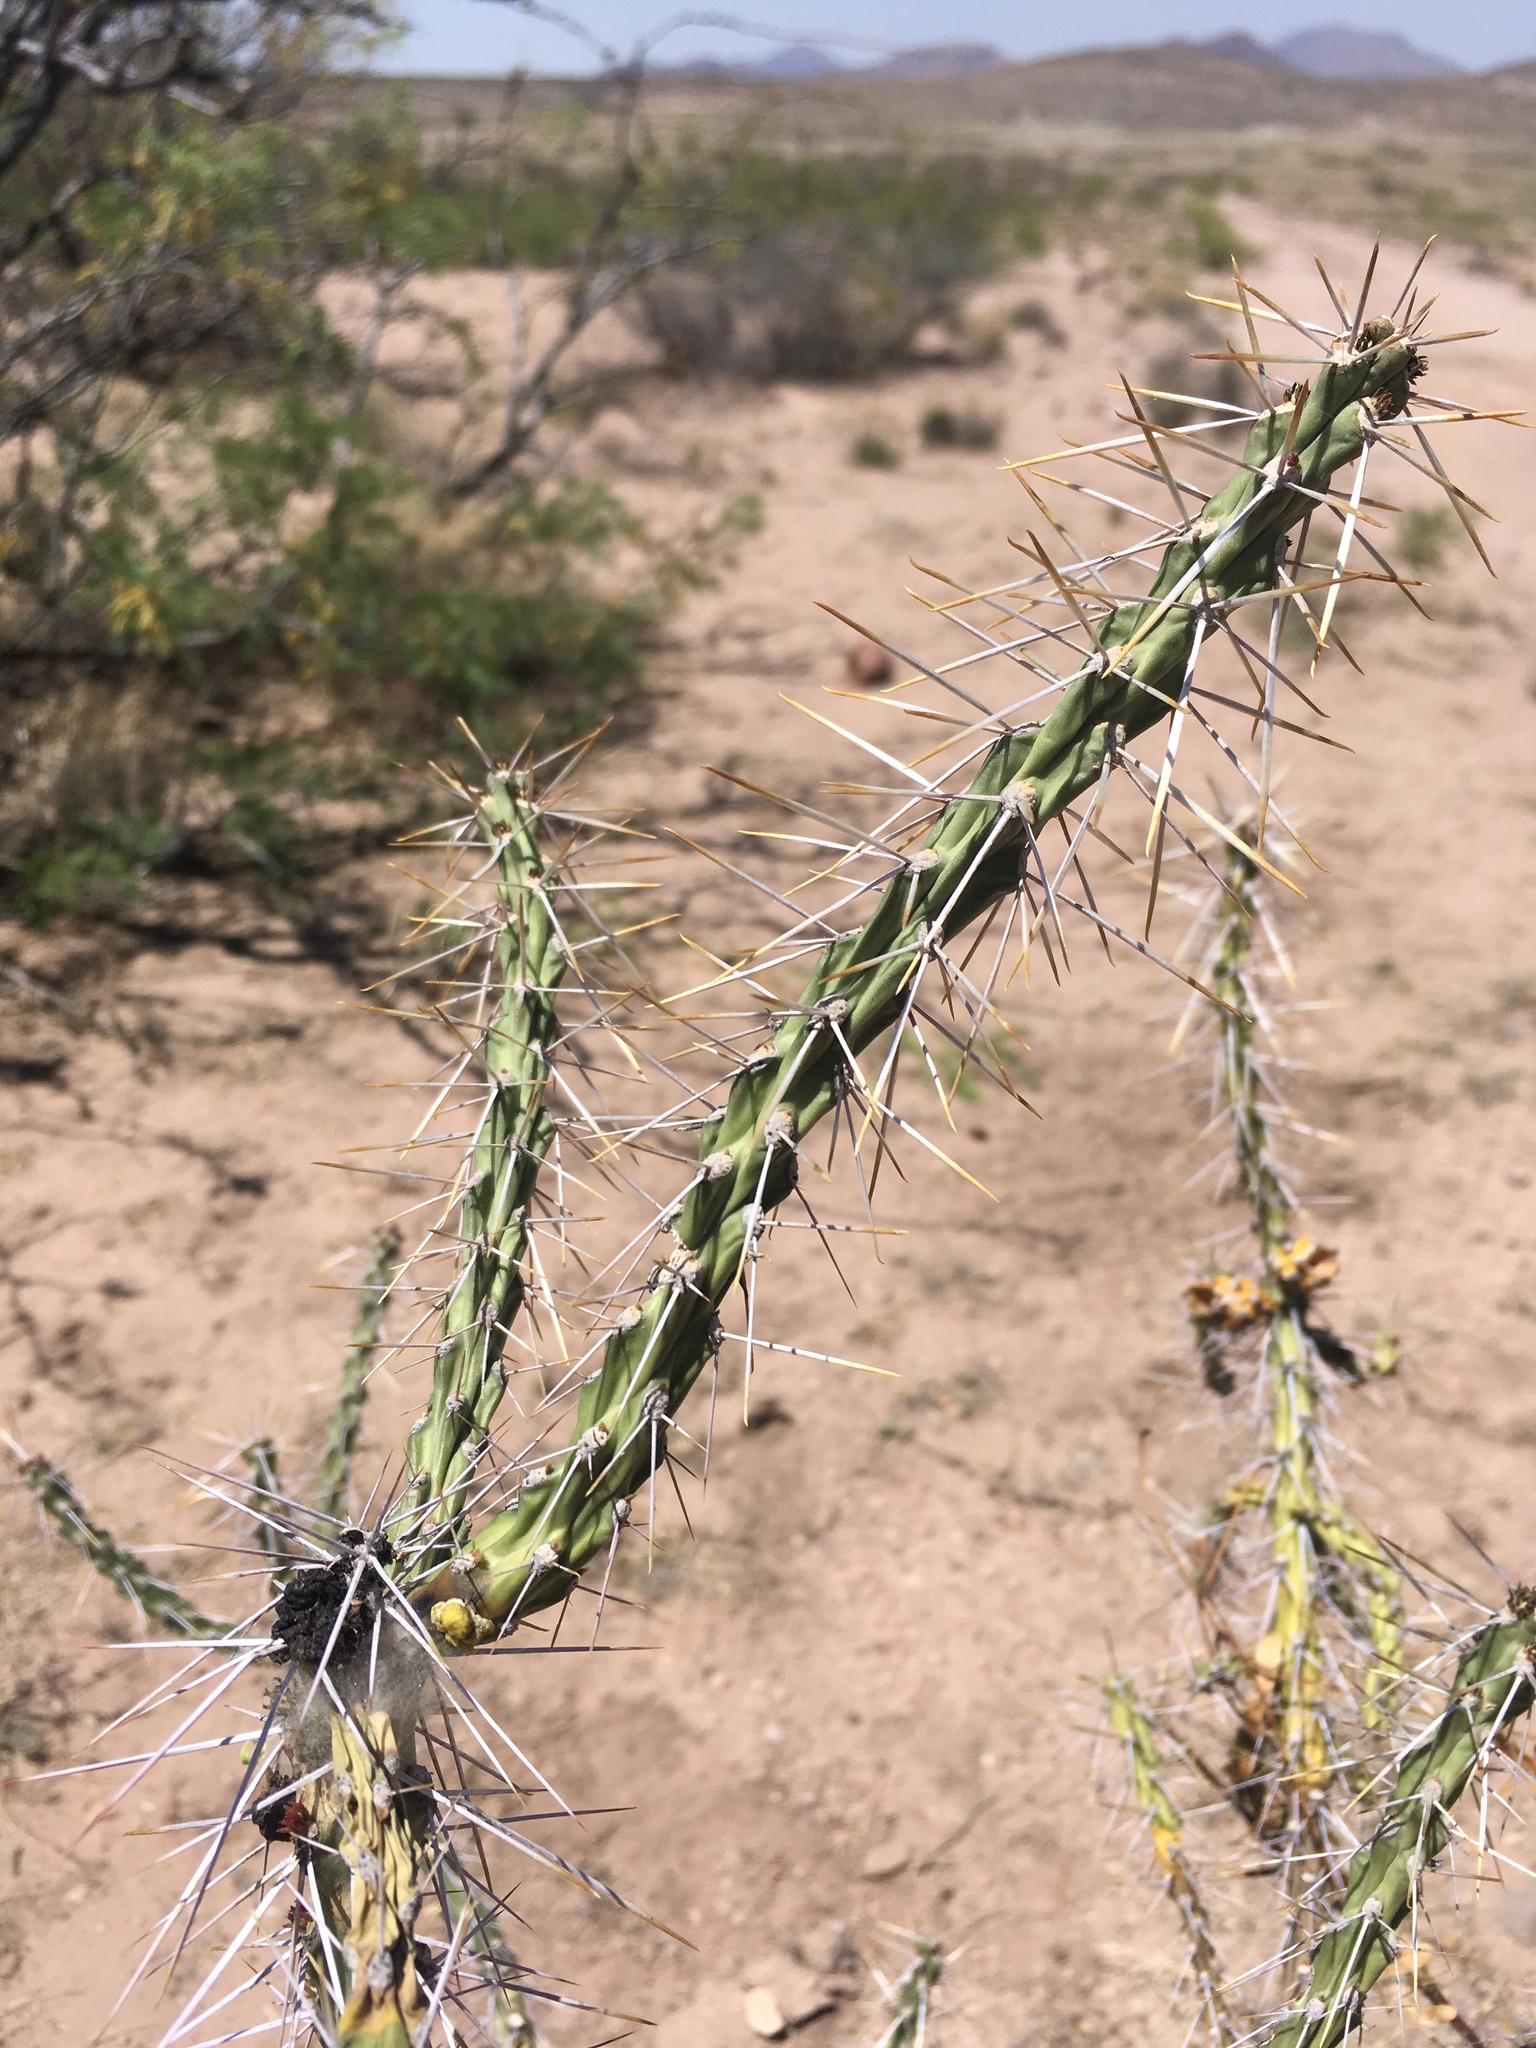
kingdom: Plantae
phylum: Tracheophyta
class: Magnoliopsida
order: Caryophyllales
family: Cactaceae
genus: Cylindropuntia
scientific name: Cylindropuntia kleiniae
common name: Klein's cholla
